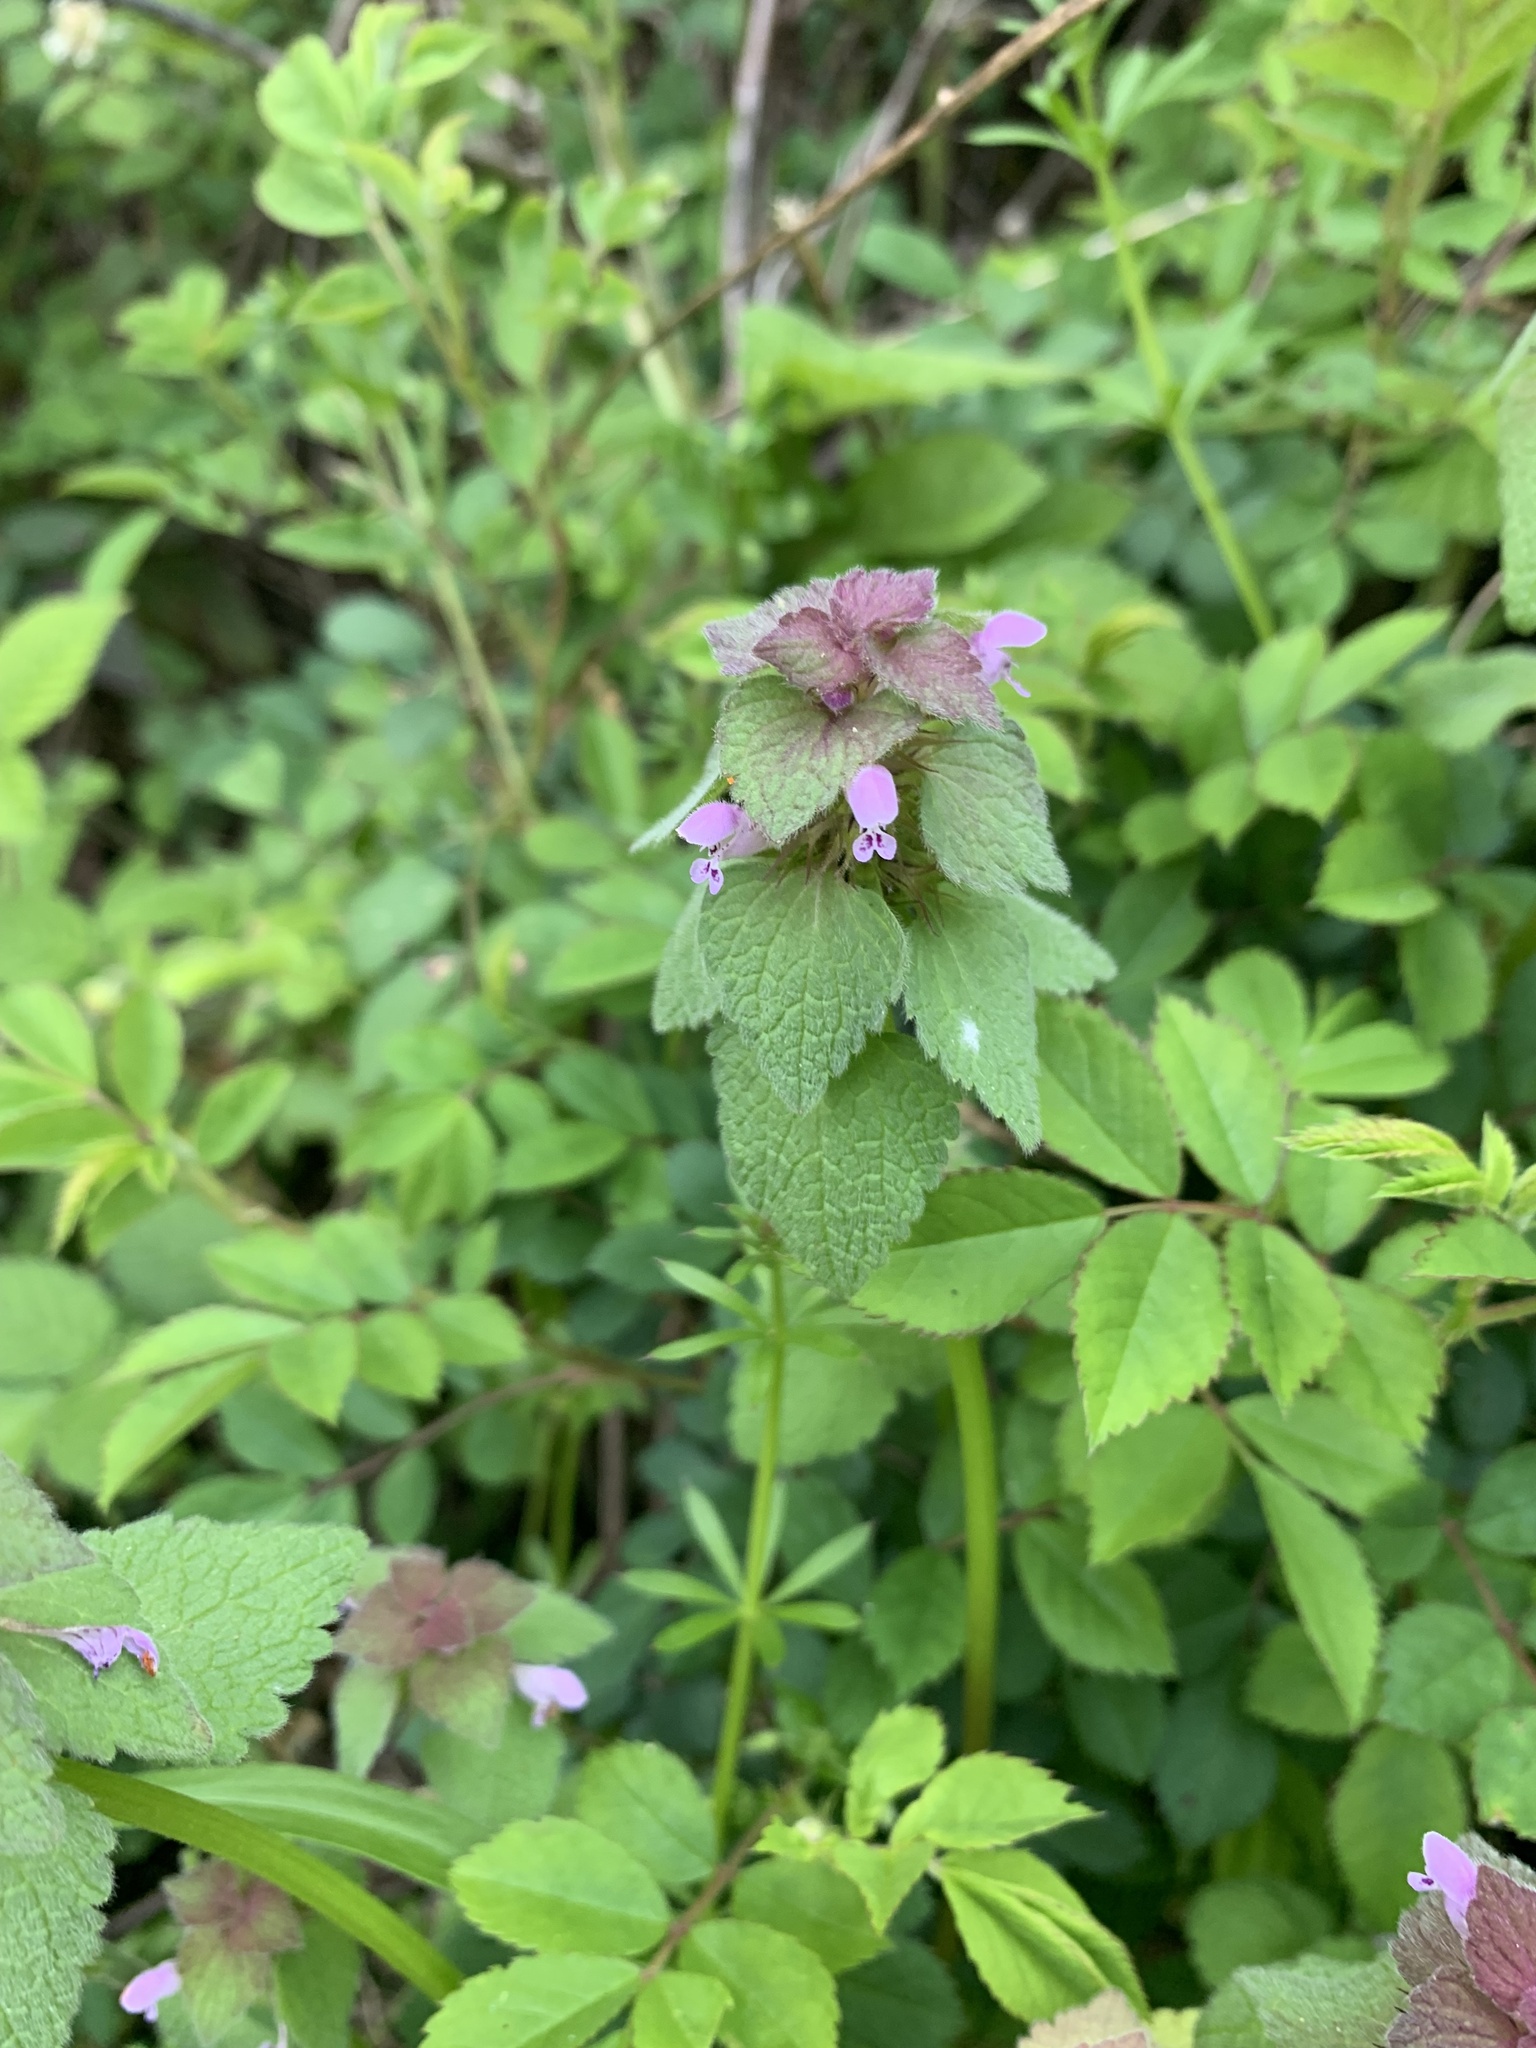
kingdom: Plantae
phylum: Tracheophyta
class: Magnoliopsida
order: Lamiales
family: Lamiaceae
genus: Lamium
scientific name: Lamium purpureum
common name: Red dead-nettle
